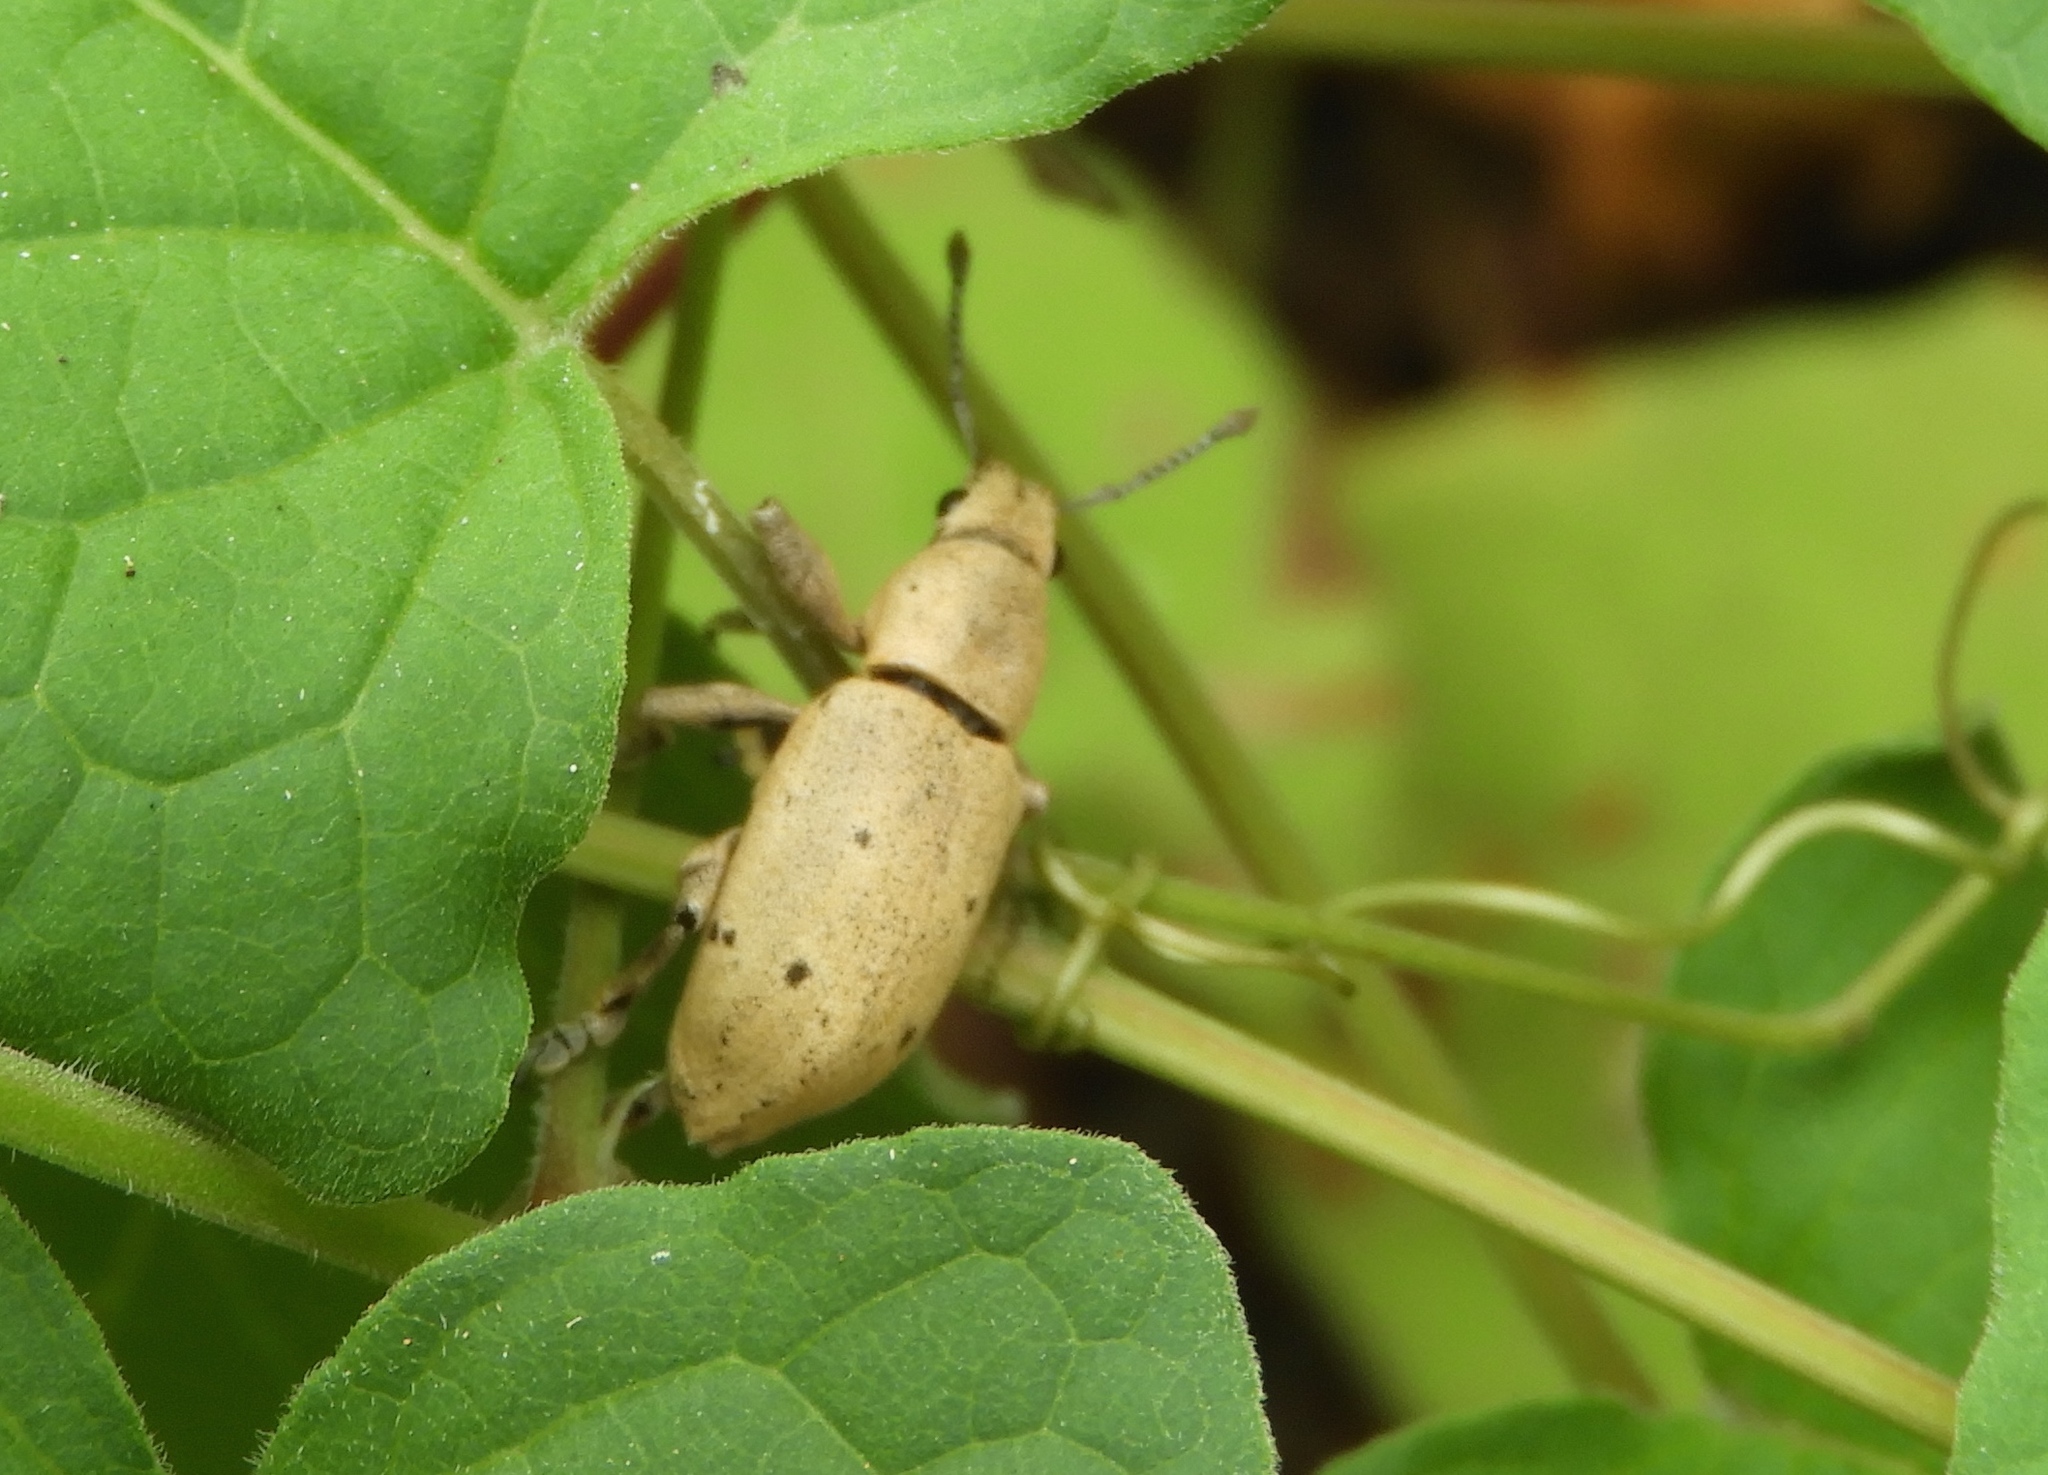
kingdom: Animalia
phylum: Arthropoda
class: Insecta
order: Coleoptera
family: Curculionidae
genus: Ericydeus
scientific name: Ericydeus forreri
